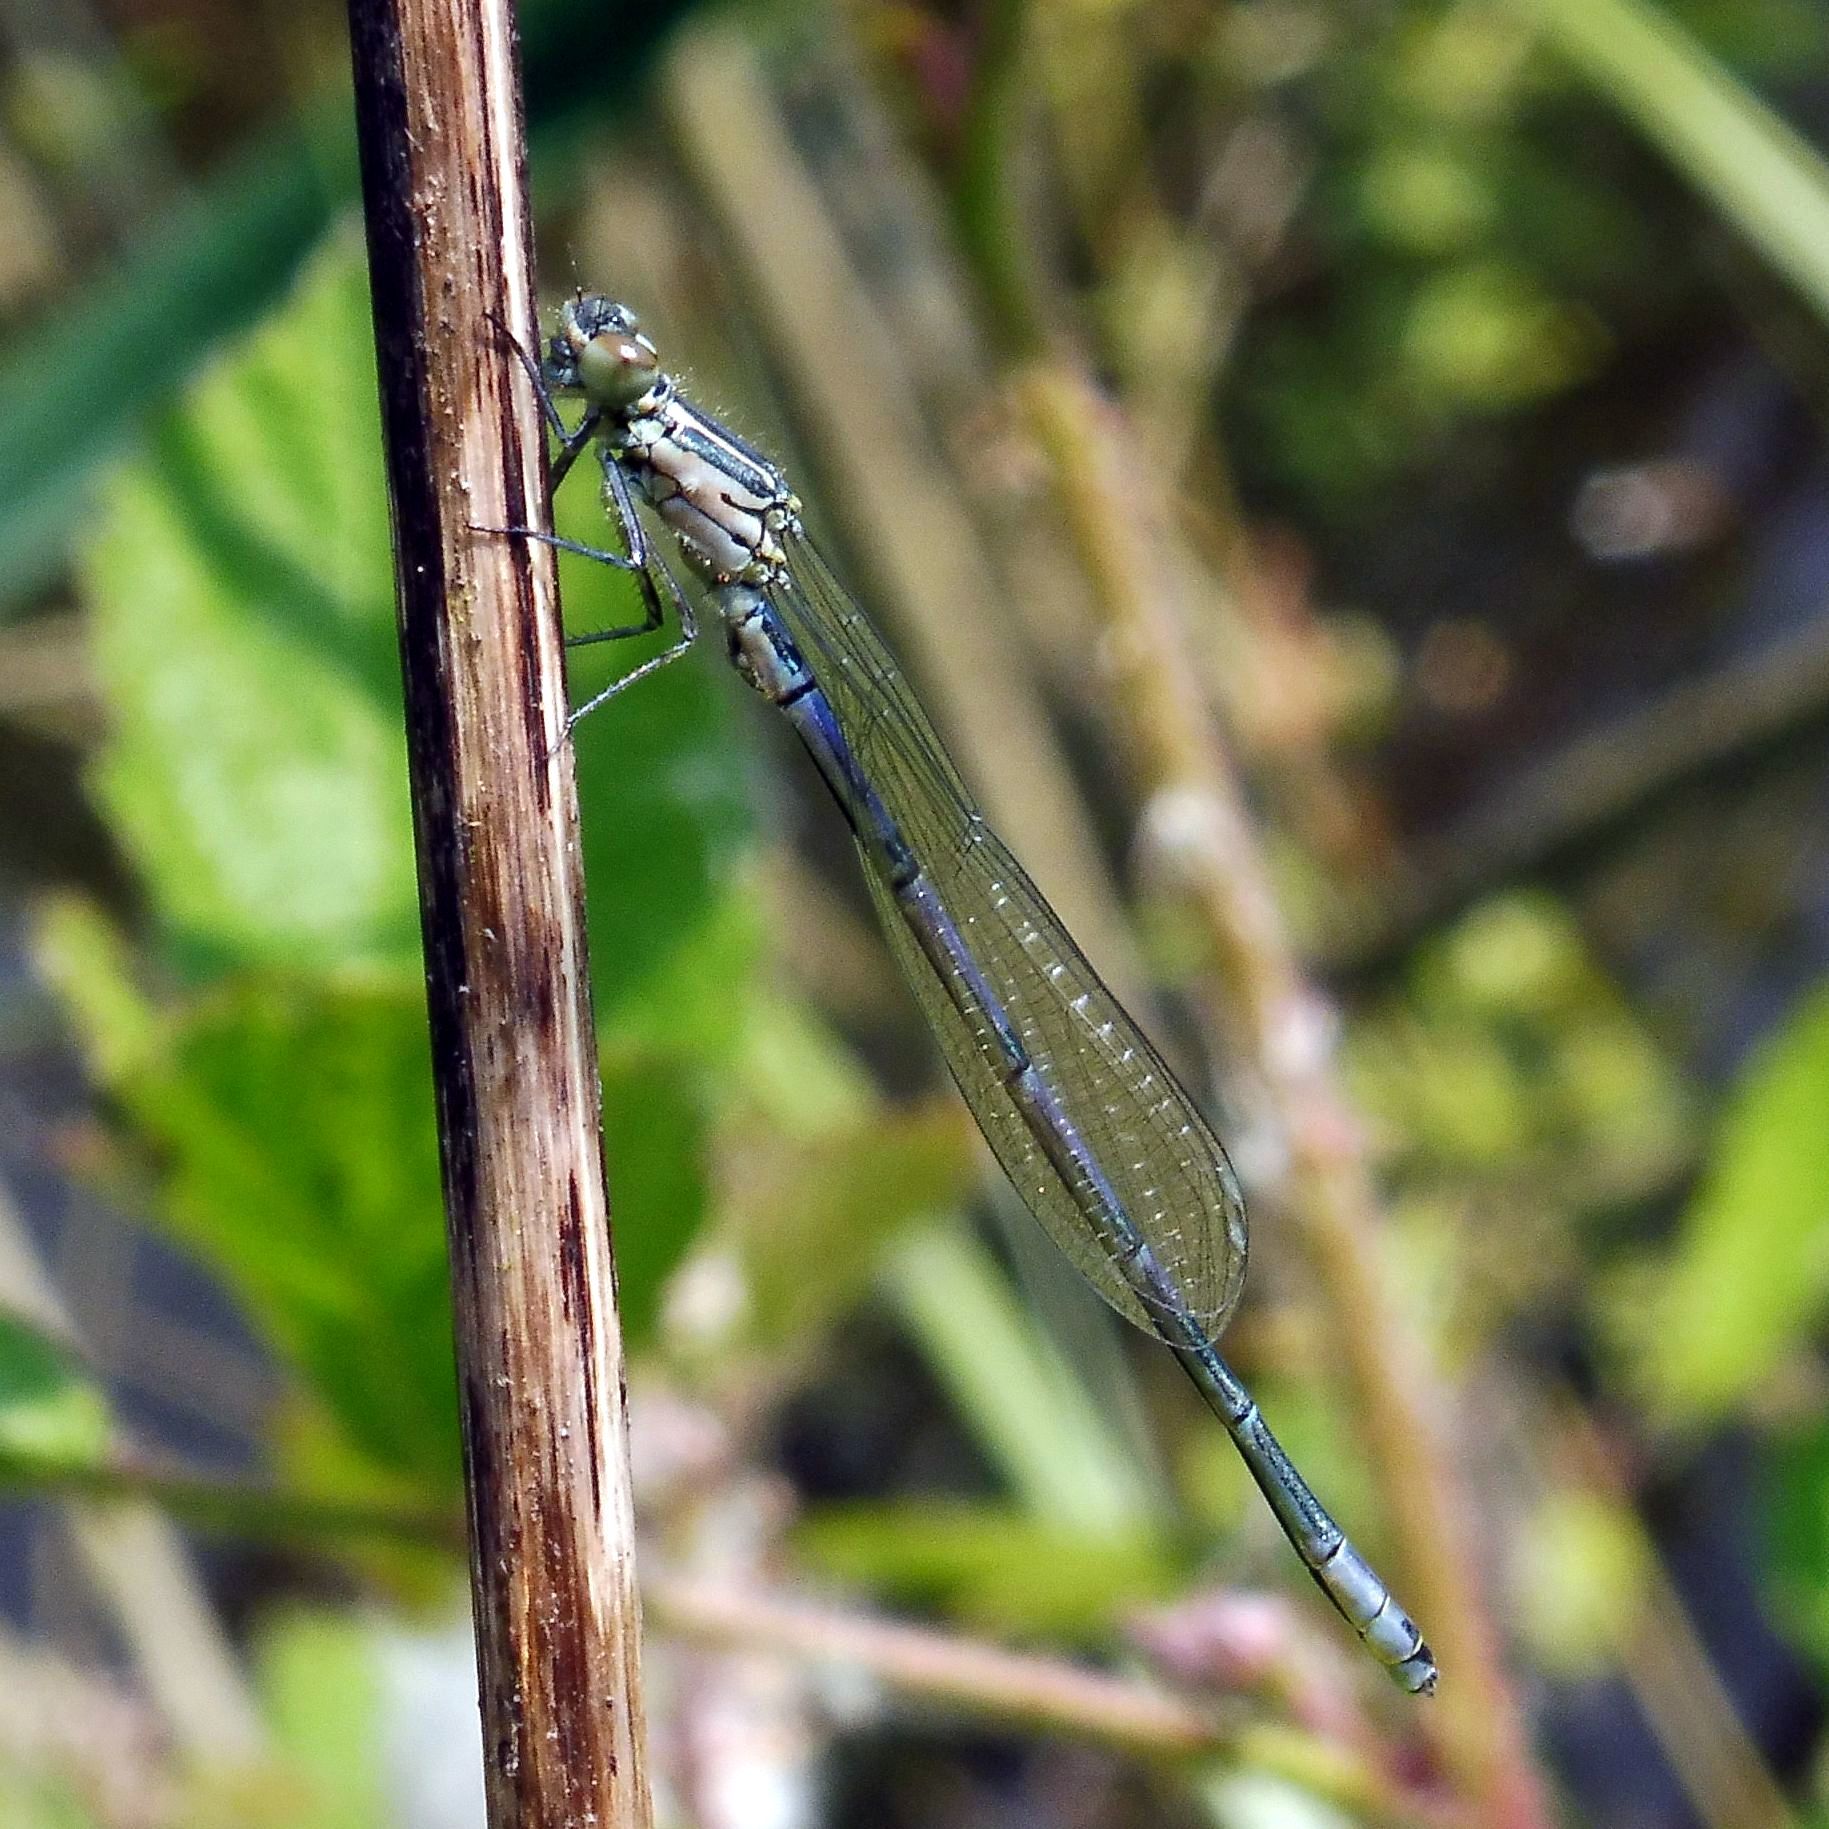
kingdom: Animalia
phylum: Arthropoda
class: Insecta
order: Odonata
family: Coenagrionidae
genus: Coenagrion
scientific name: Coenagrion puella
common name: Azure damselfly
